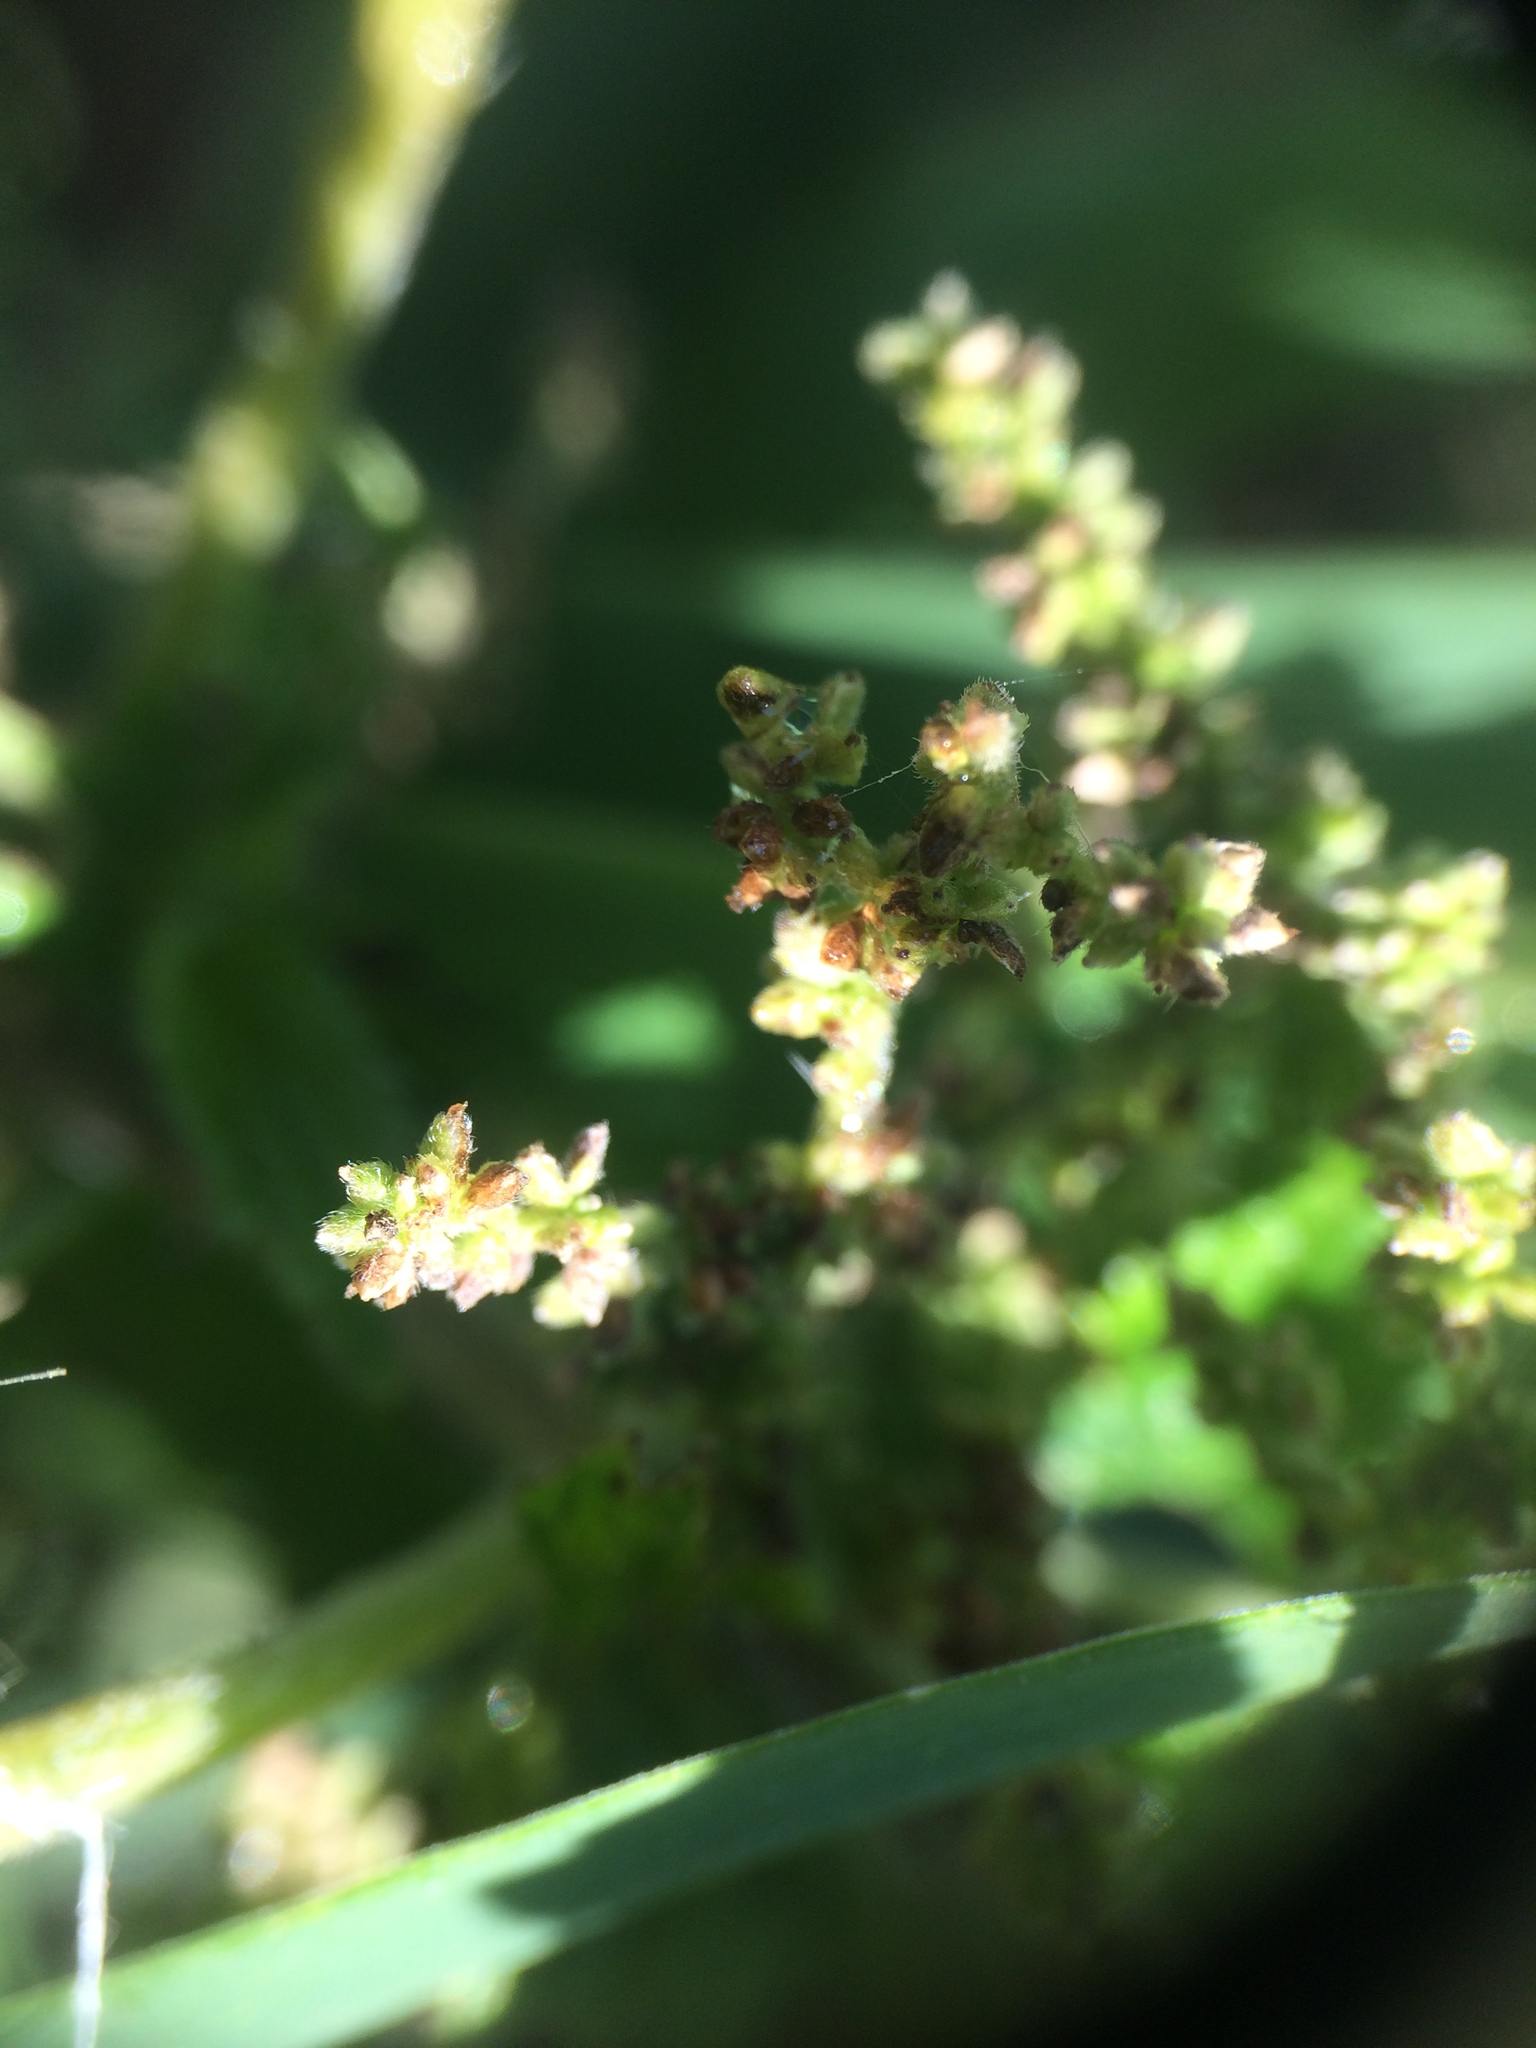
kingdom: Plantae
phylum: Tracheophyta
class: Magnoliopsida
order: Rosales
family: Urticaceae
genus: Urtica
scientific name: Urtica gracilis
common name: Slender stinging nettle
